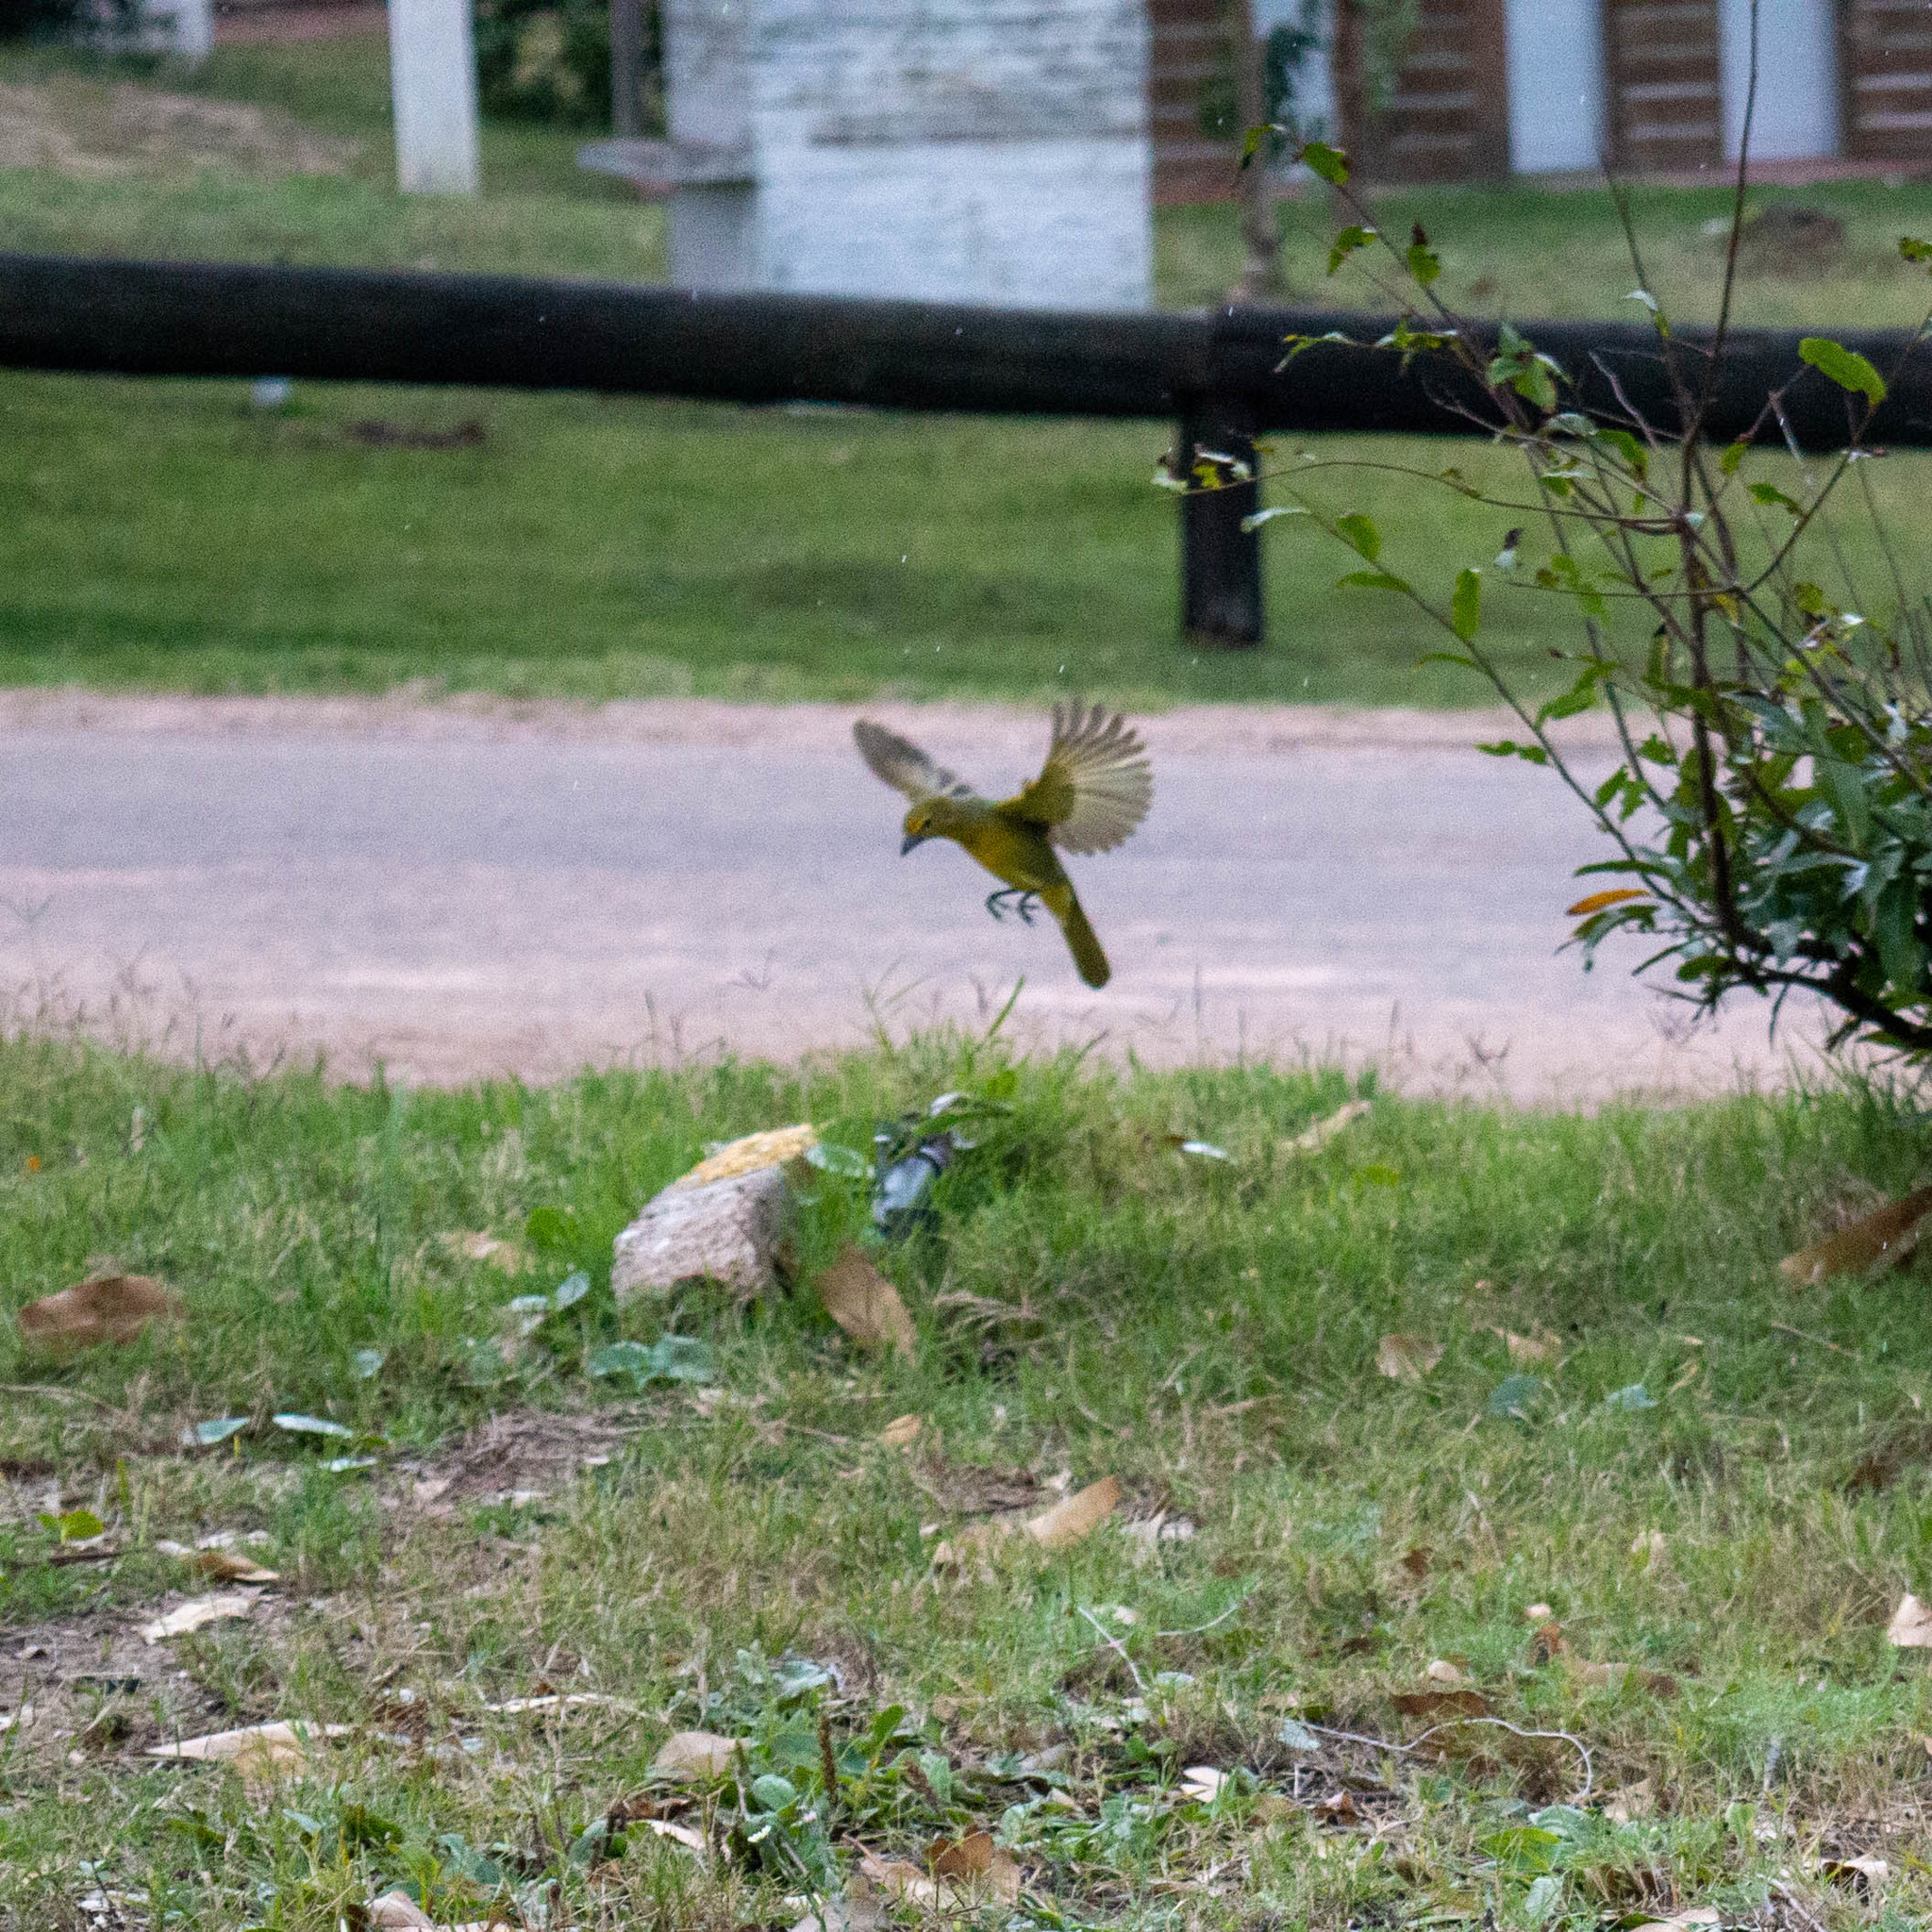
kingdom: Animalia
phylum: Chordata
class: Aves
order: Passeriformes
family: Cardinalidae
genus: Piranga
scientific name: Piranga flava
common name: Red tanager
